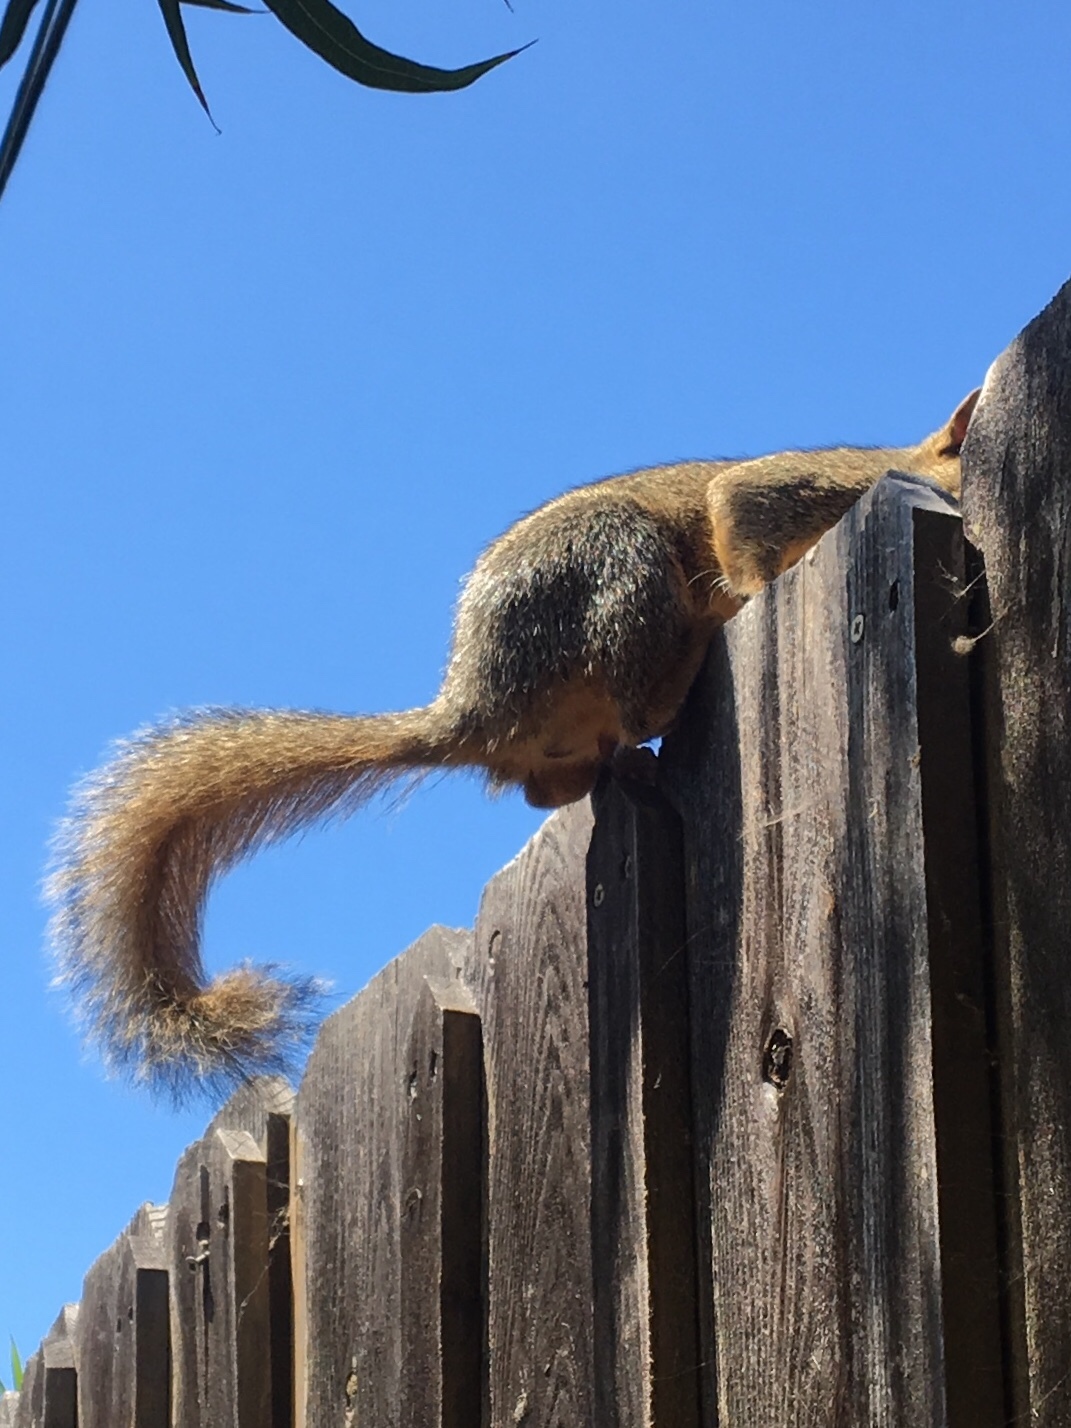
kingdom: Animalia
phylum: Chordata
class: Mammalia
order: Rodentia
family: Sciuridae
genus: Sciurus
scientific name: Sciurus niger
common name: Fox squirrel
